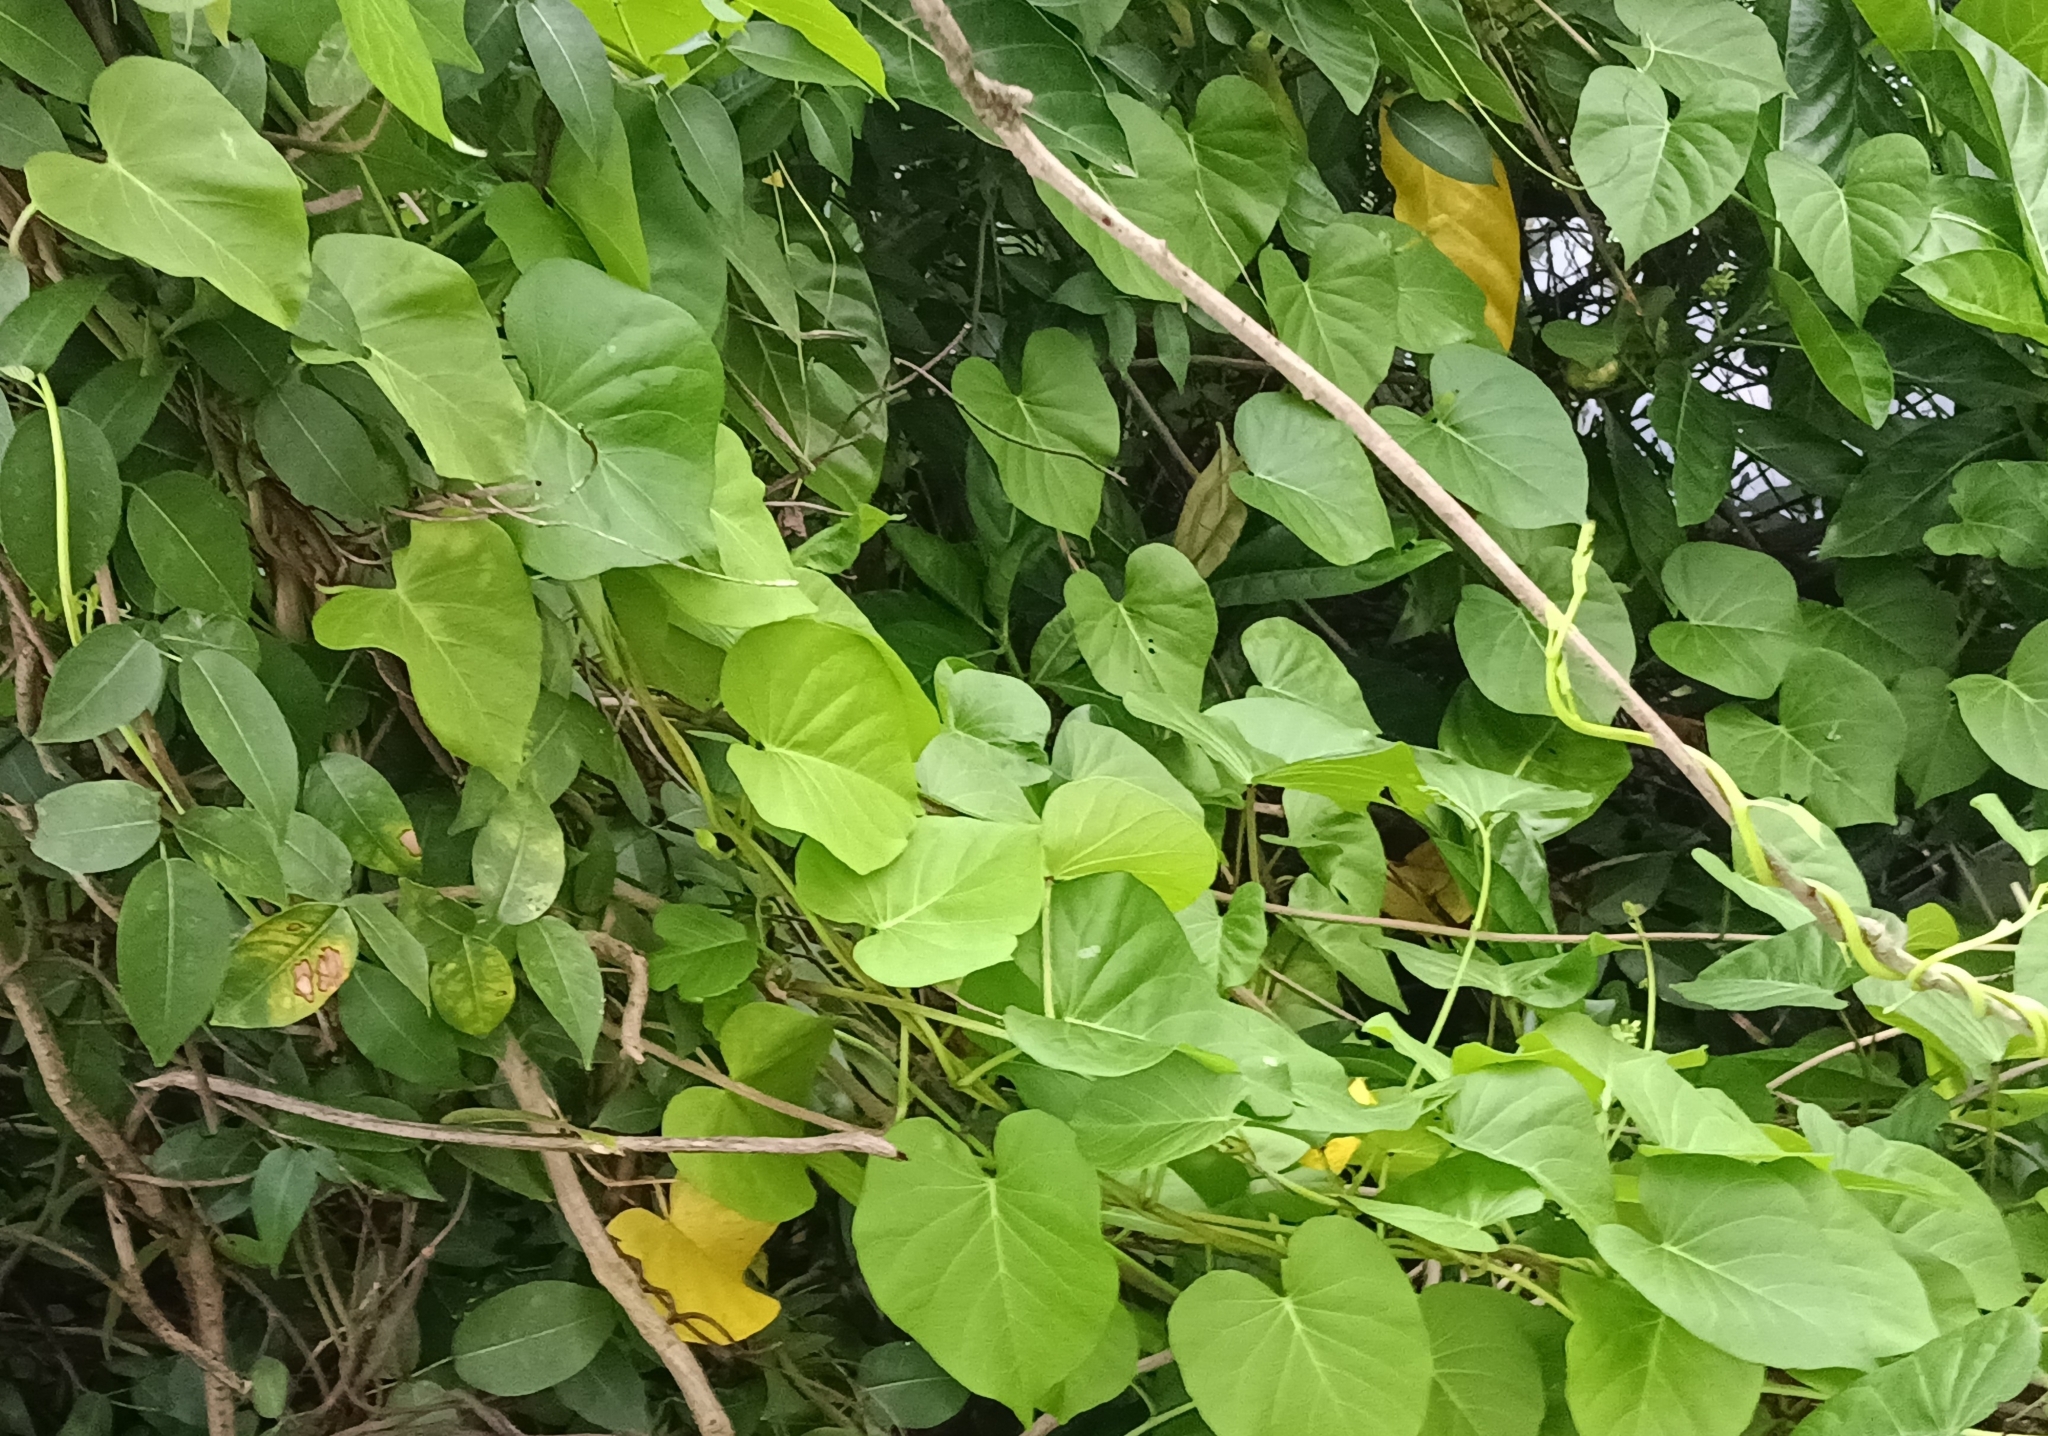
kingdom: Plantae
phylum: Tracheophyta
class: Magnoliopsida
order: Solanales
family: Convolvulaceae
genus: Ipomoea
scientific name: Ipomoea violacea
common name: Beach moonflower
